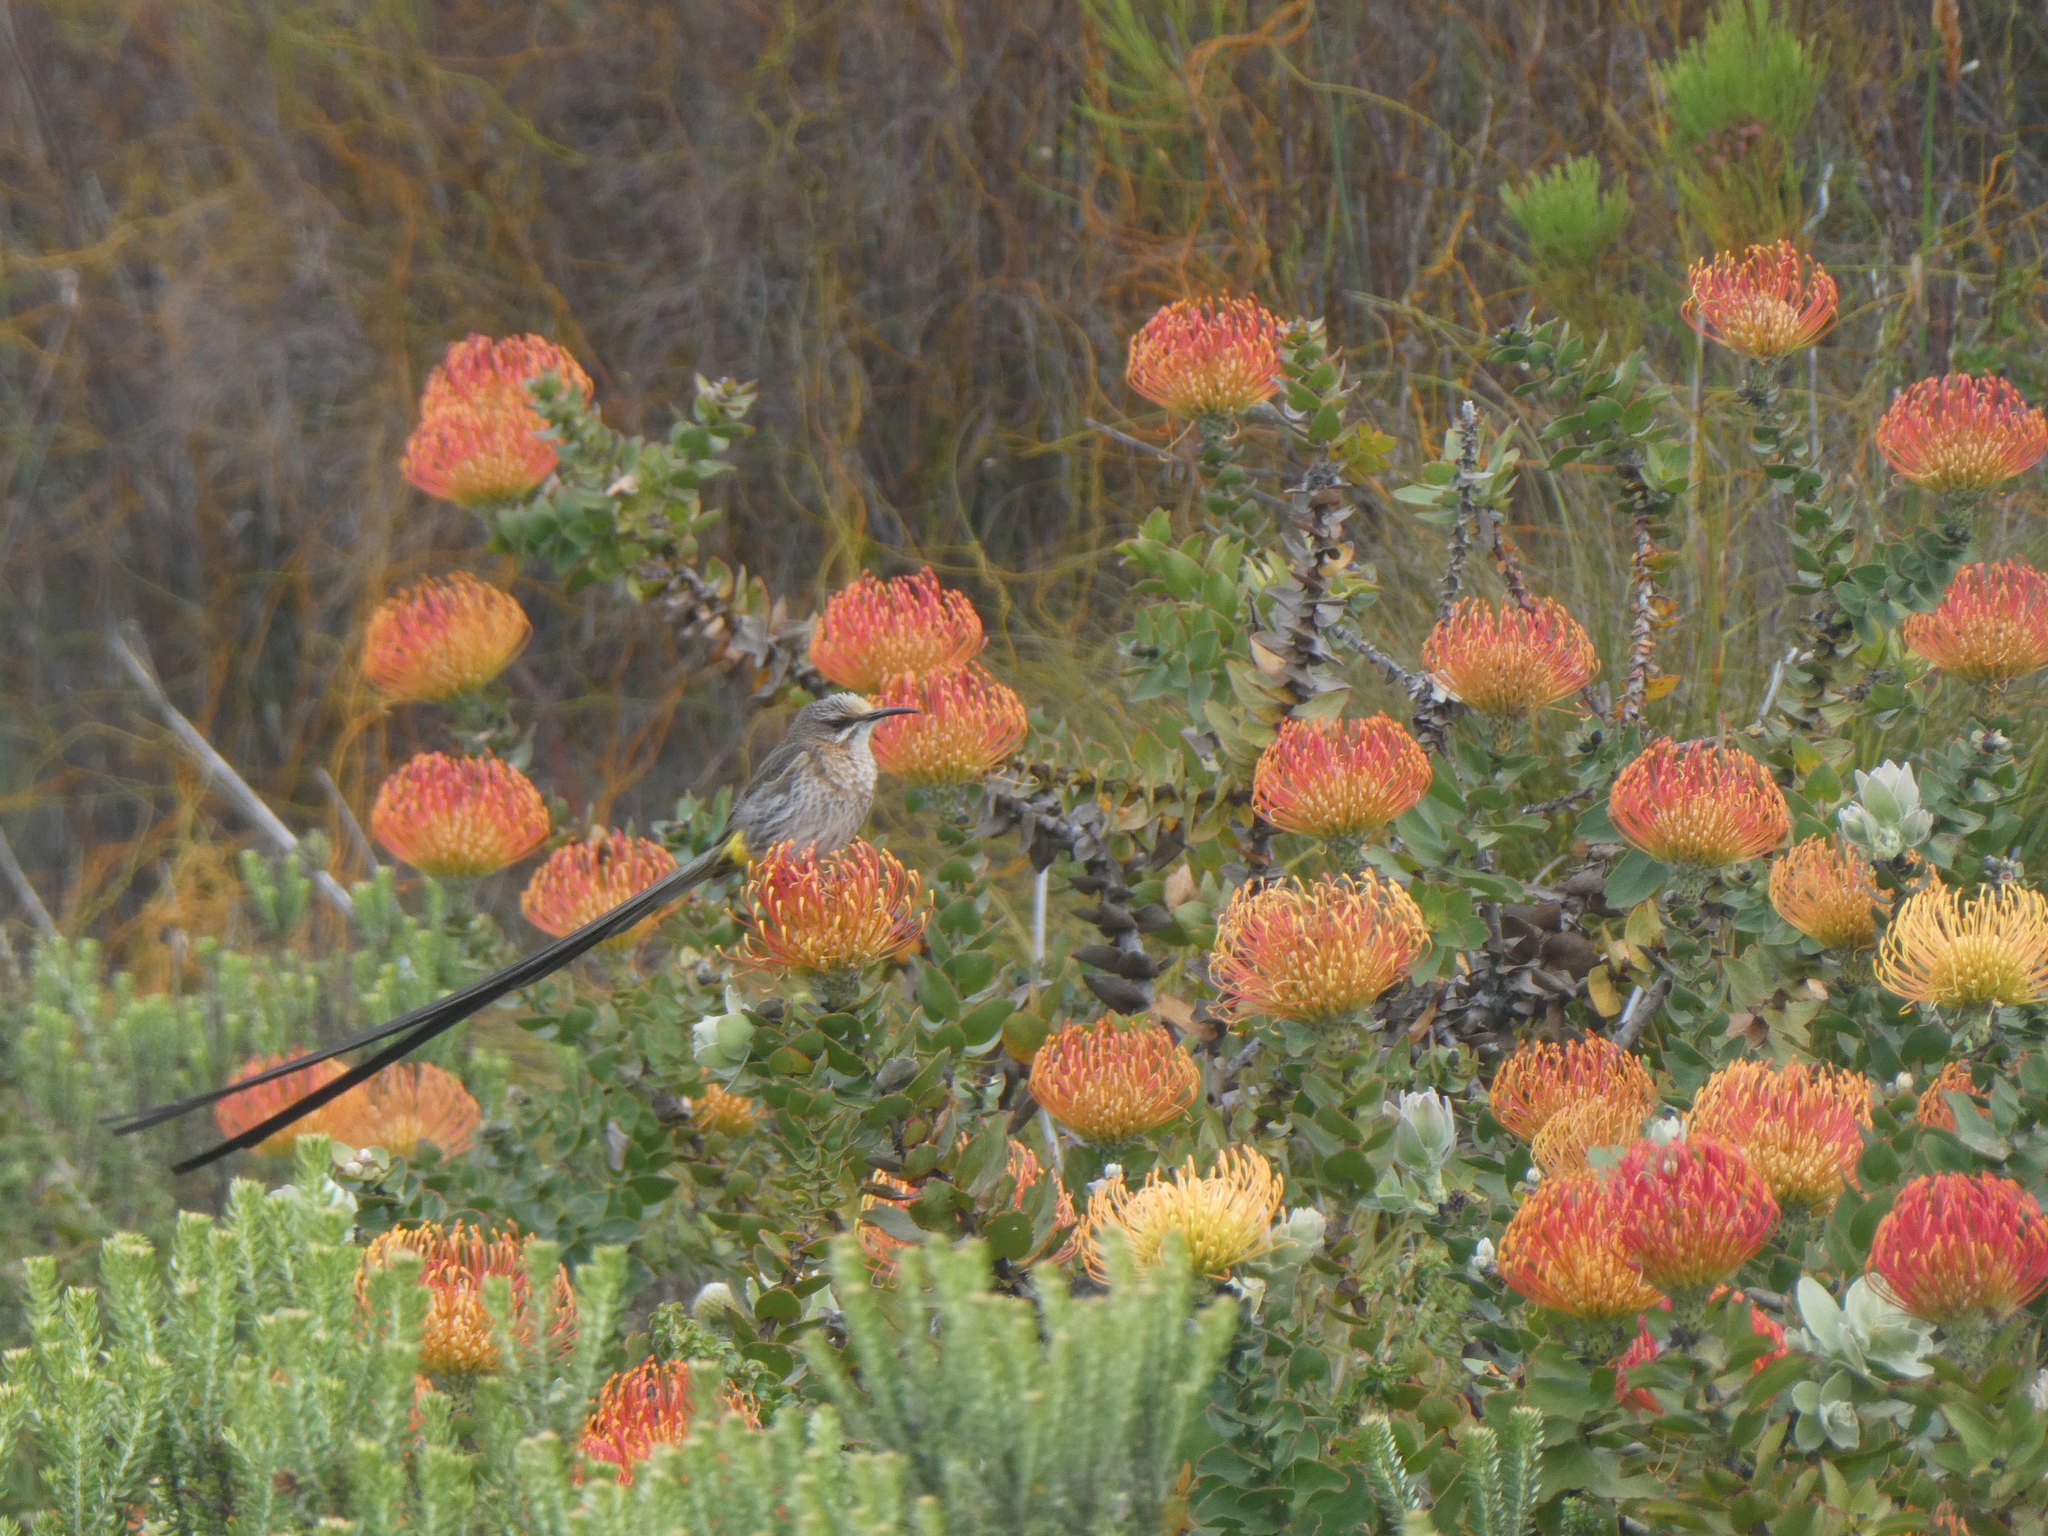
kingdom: Animalia
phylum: Chordata
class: Aves
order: Passeriformes
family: Promeropidae
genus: Promerops
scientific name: Promerops cafer
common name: Cape sugarbird
